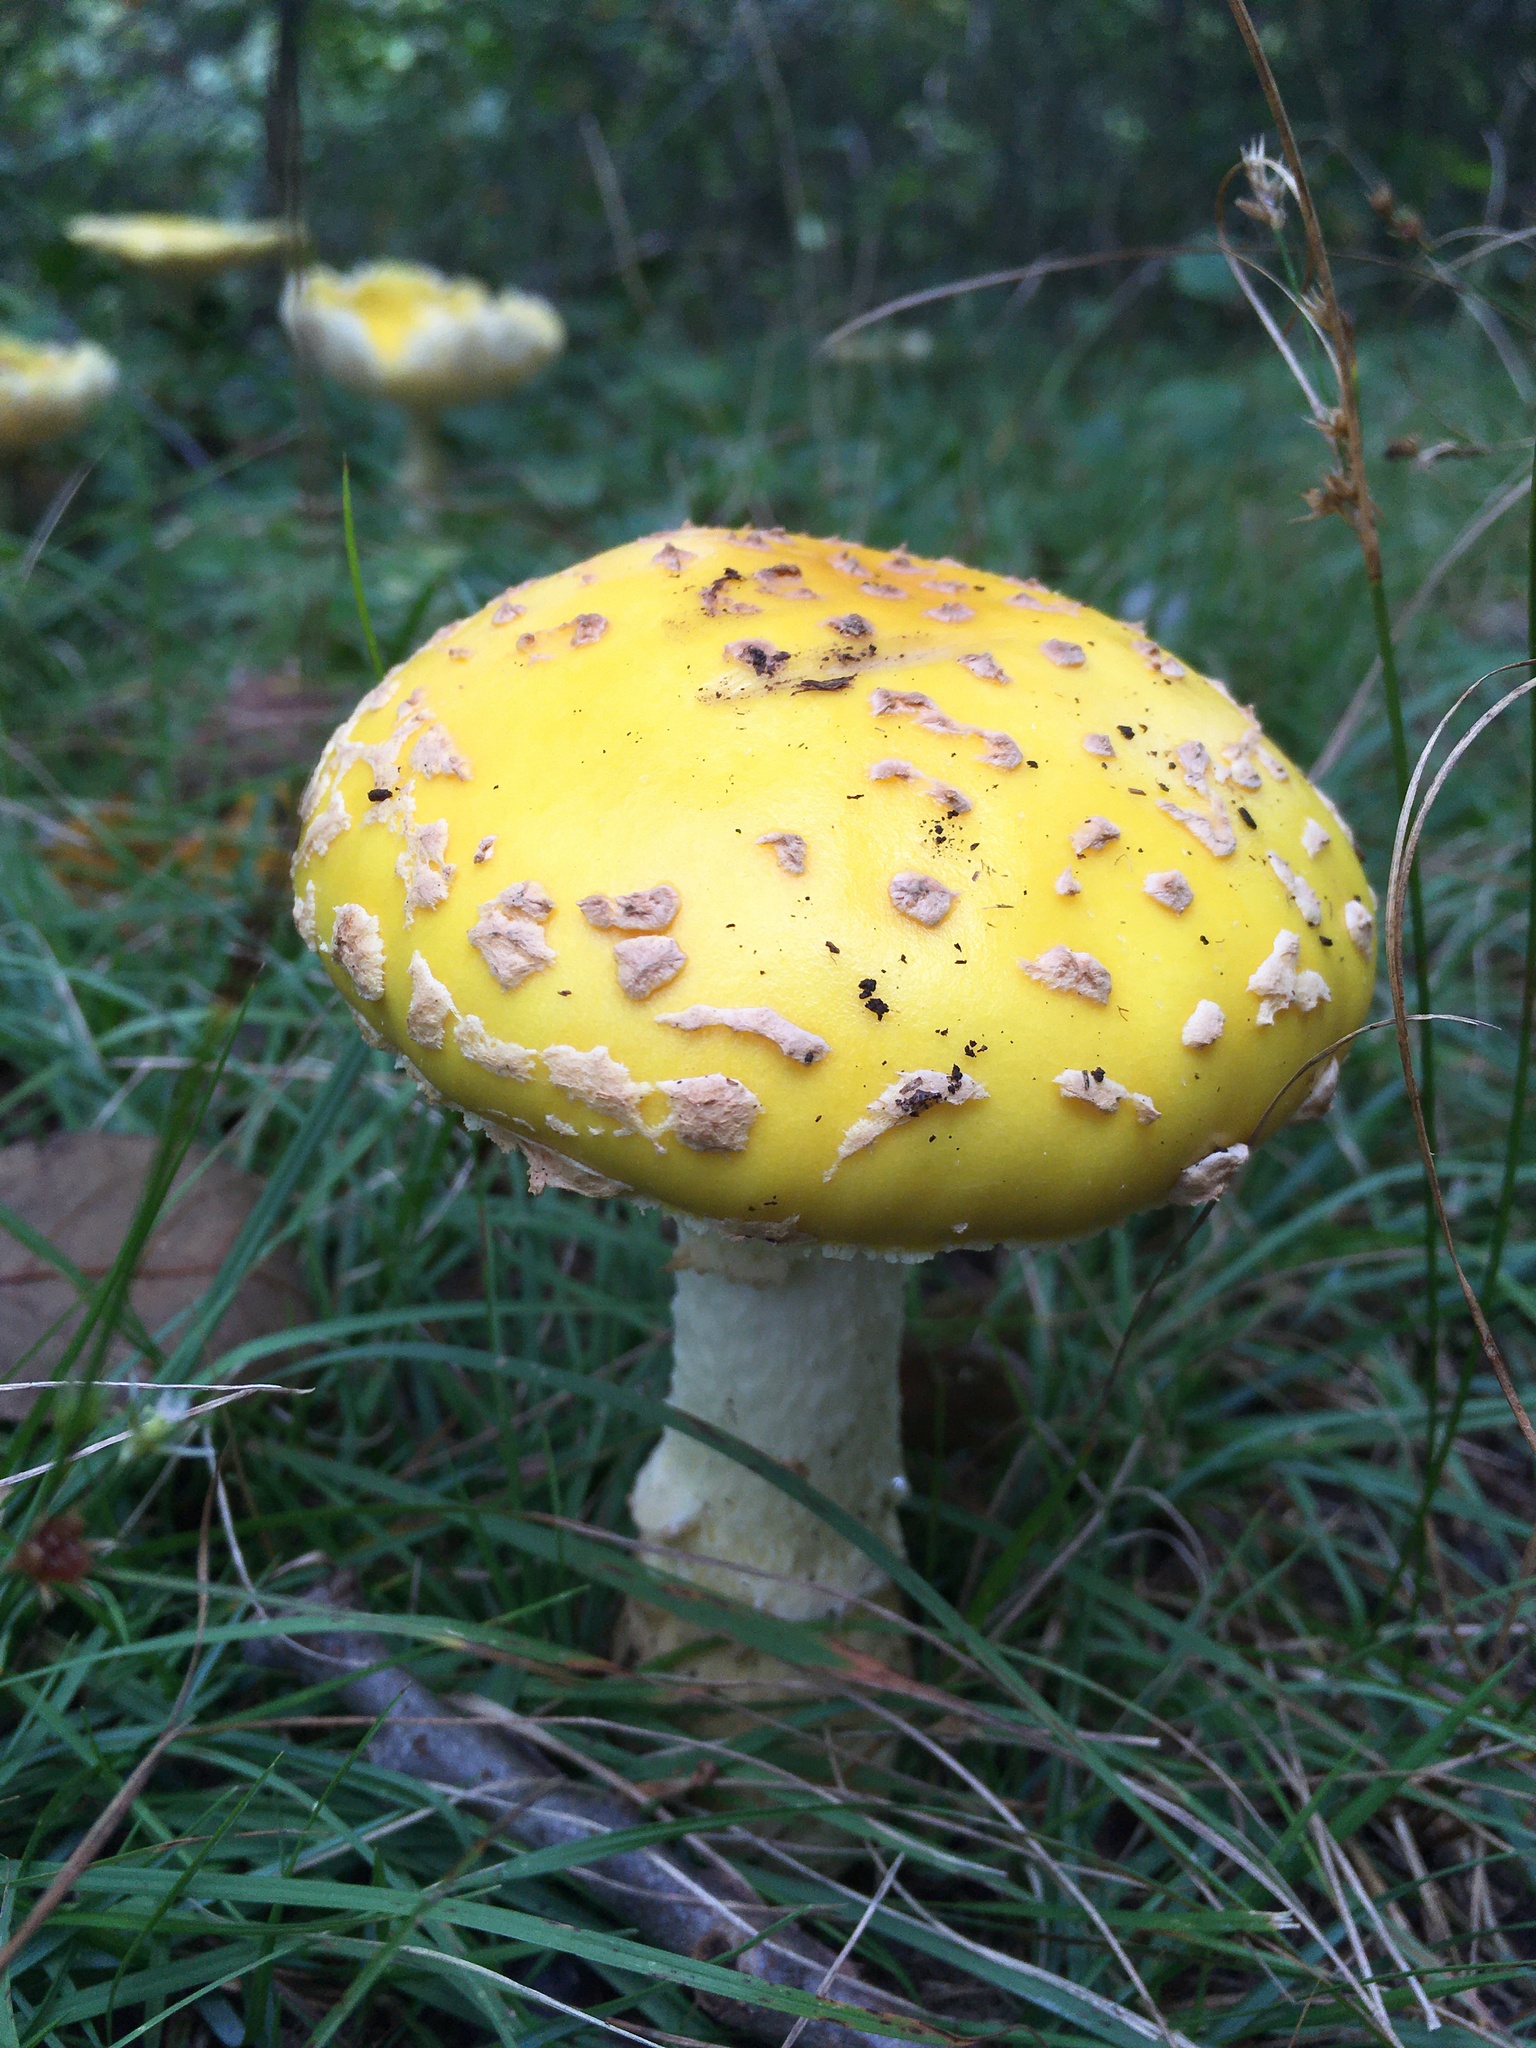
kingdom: Fungi
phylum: Basidiomycota
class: Agaricomycetes
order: Agaricales
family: Amanitaceae
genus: Amanita
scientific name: Amanita muscaria
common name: Fly agaric
